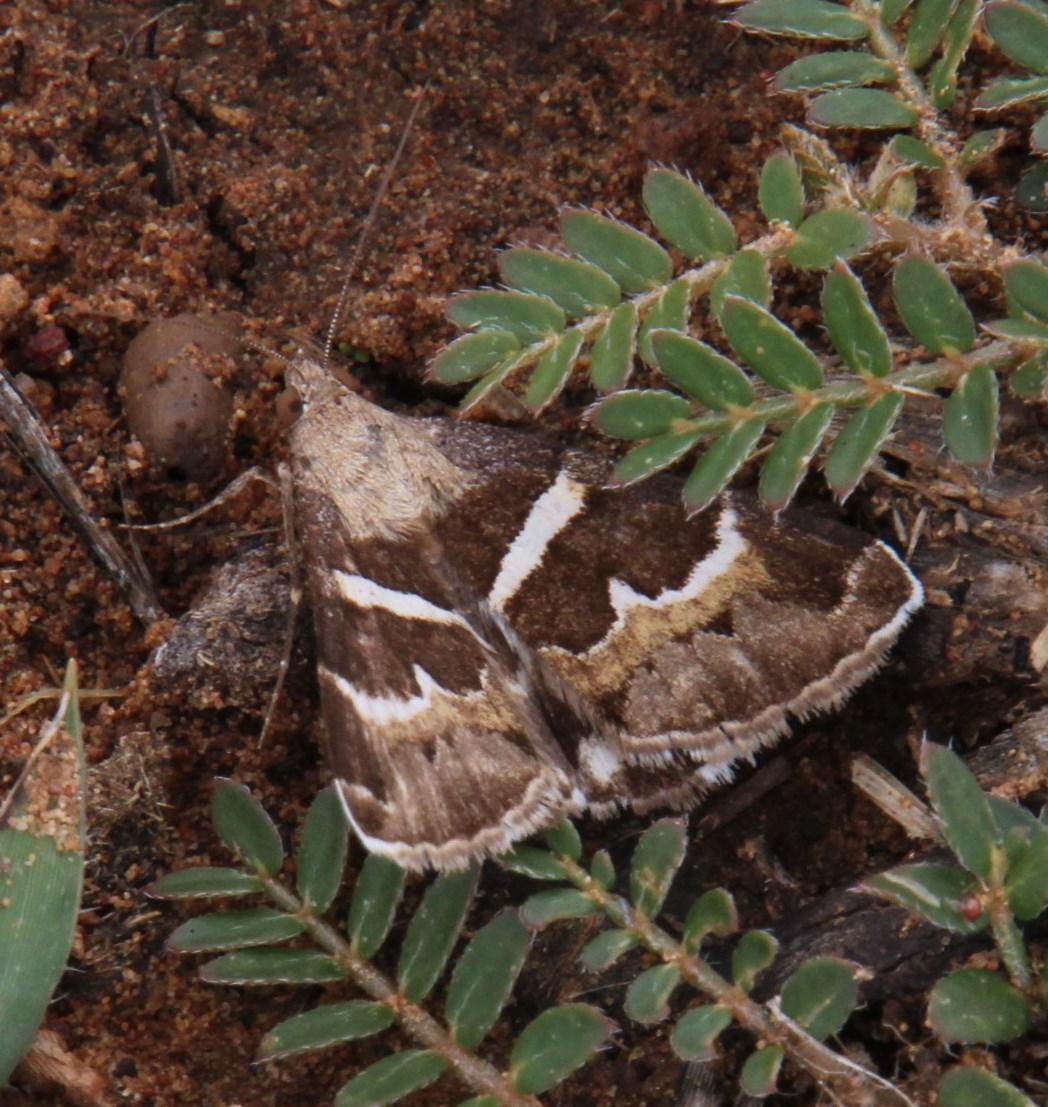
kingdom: Animalia
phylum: Arthropoda
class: Insecta
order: Lepidoptera
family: Erebidae
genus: Grammodes
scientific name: Grammodes stolida
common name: Geometrician
